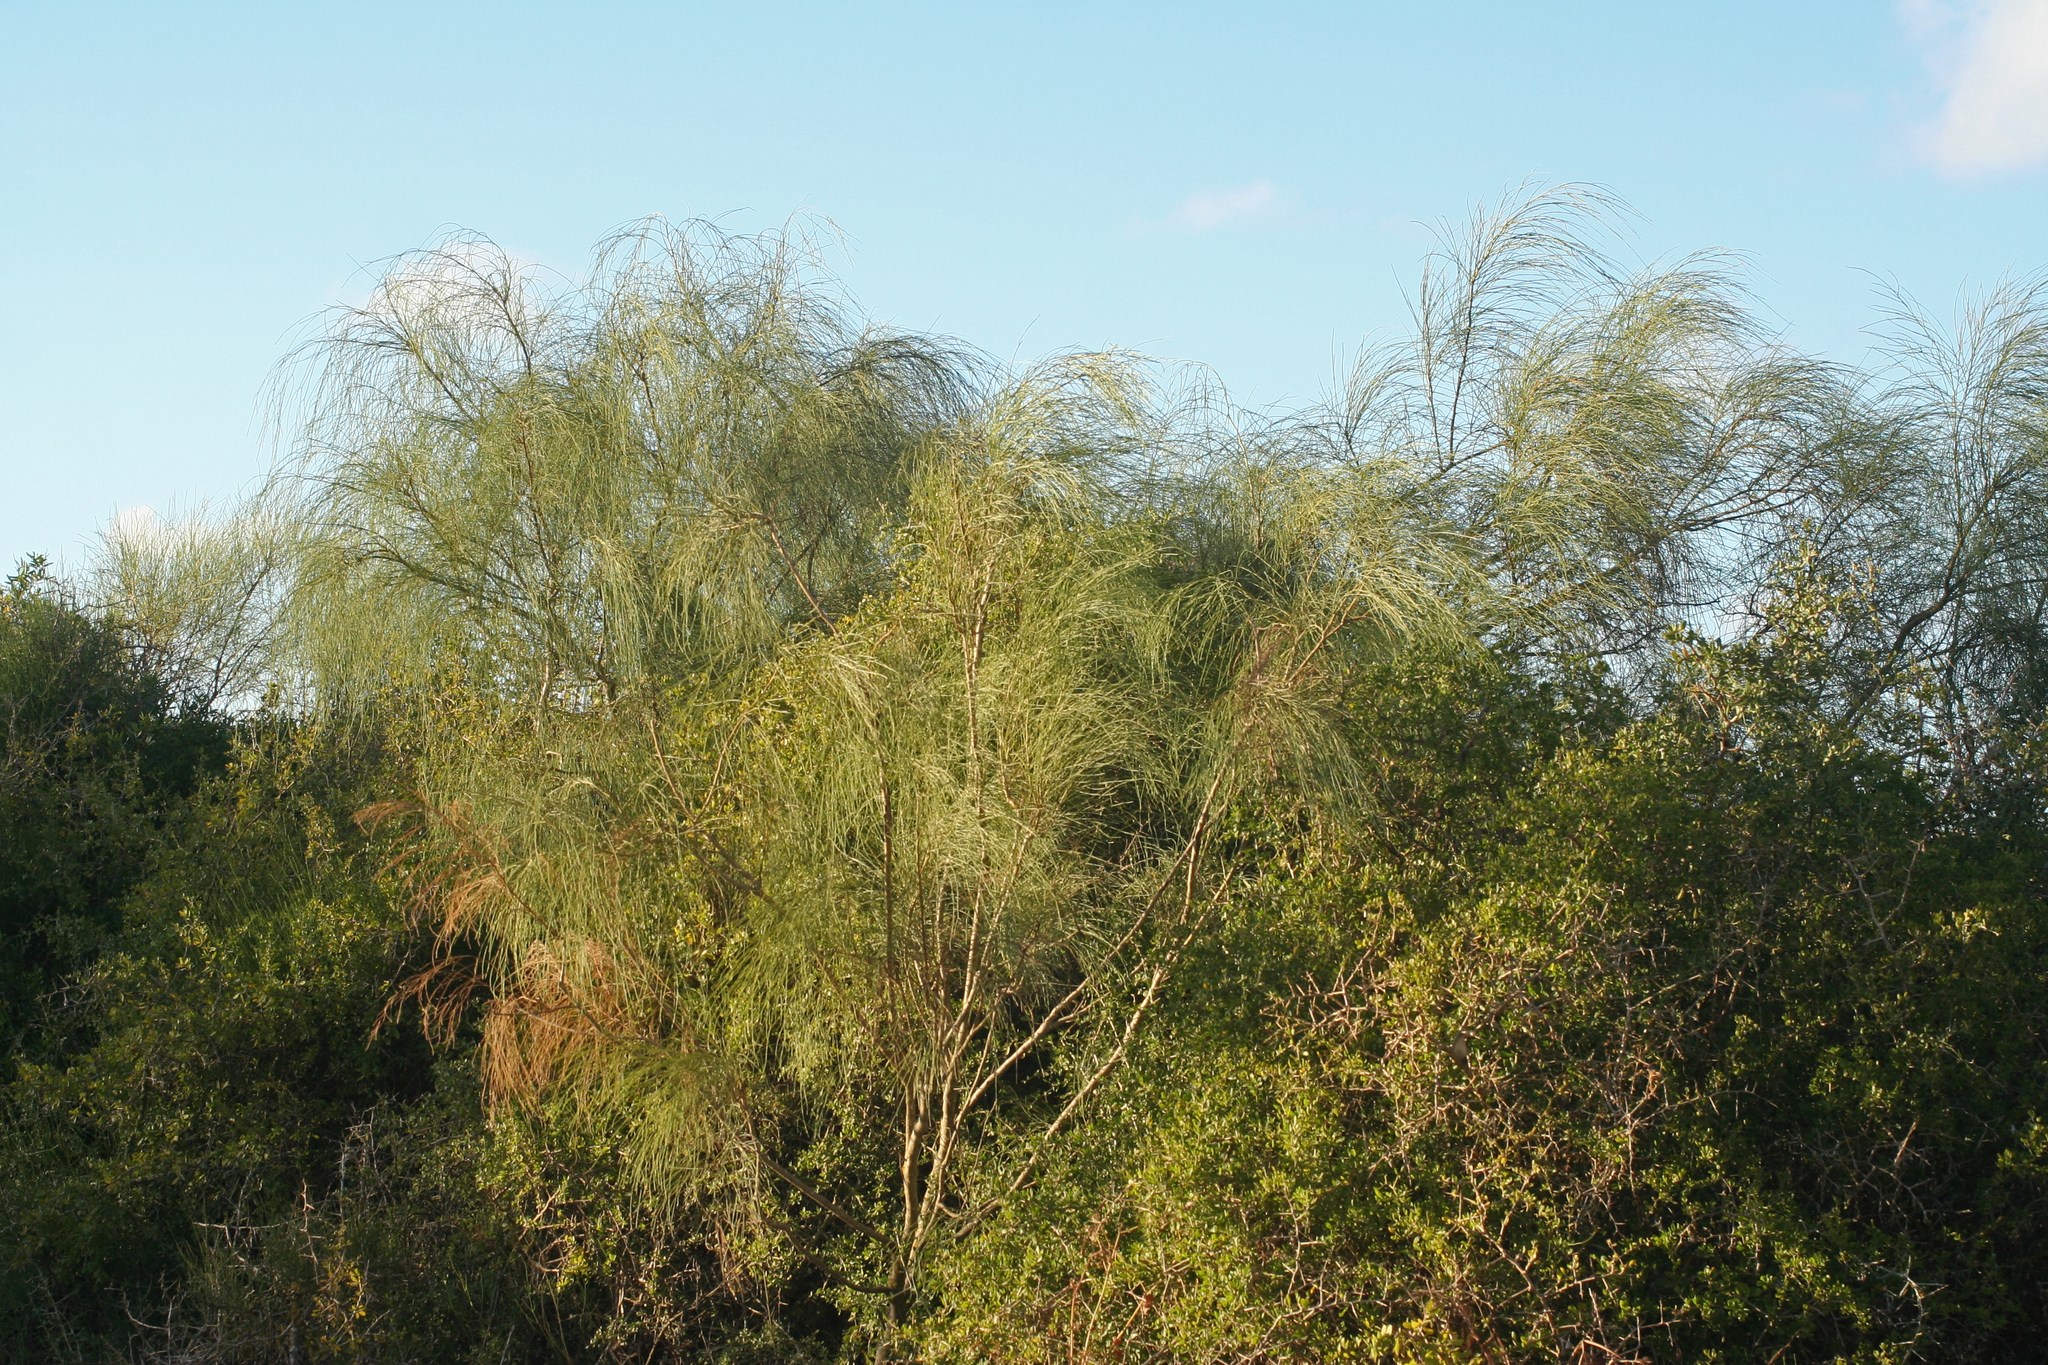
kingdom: Plantae
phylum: Tracheophyta
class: Magnoliopsida
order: Fabales
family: Fabaceae
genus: Retama
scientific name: Retama monosperma
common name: Bridal broom
